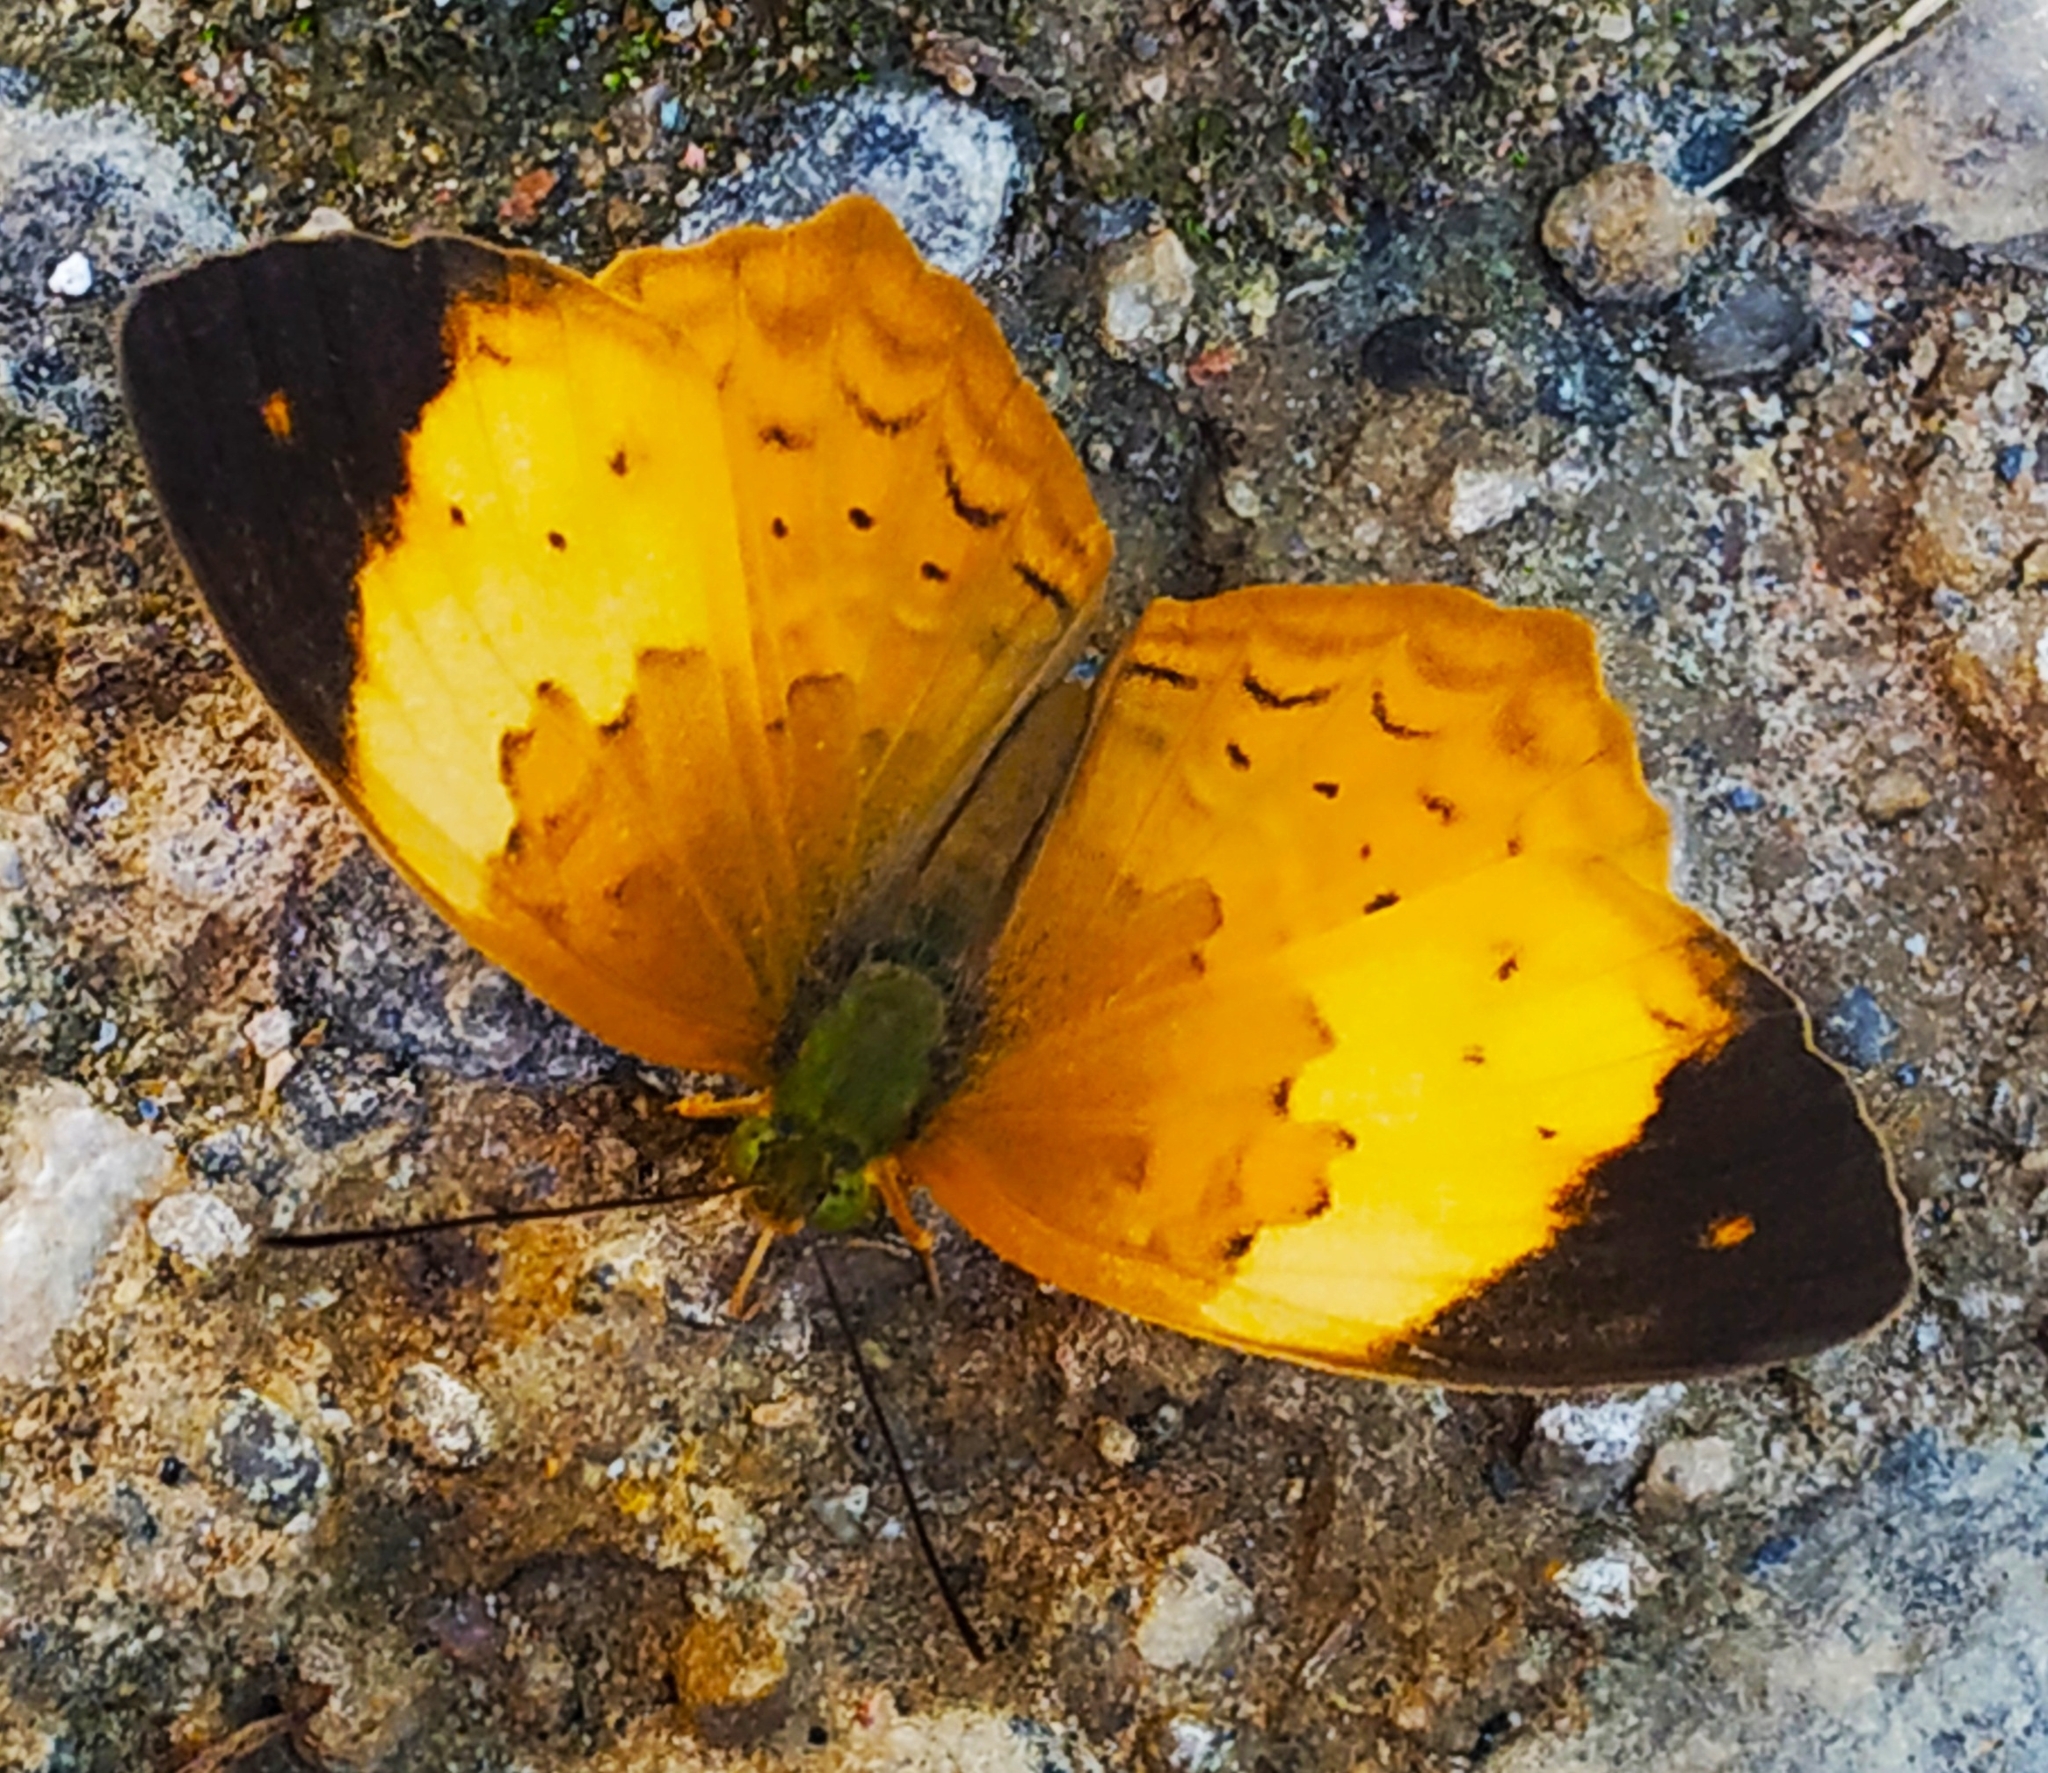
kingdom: Animalia
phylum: Arthropoda
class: Insecta
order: Lepidoptera
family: Nymphalidae
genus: Cupha
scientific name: Cupha erymanthis
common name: Rustic
